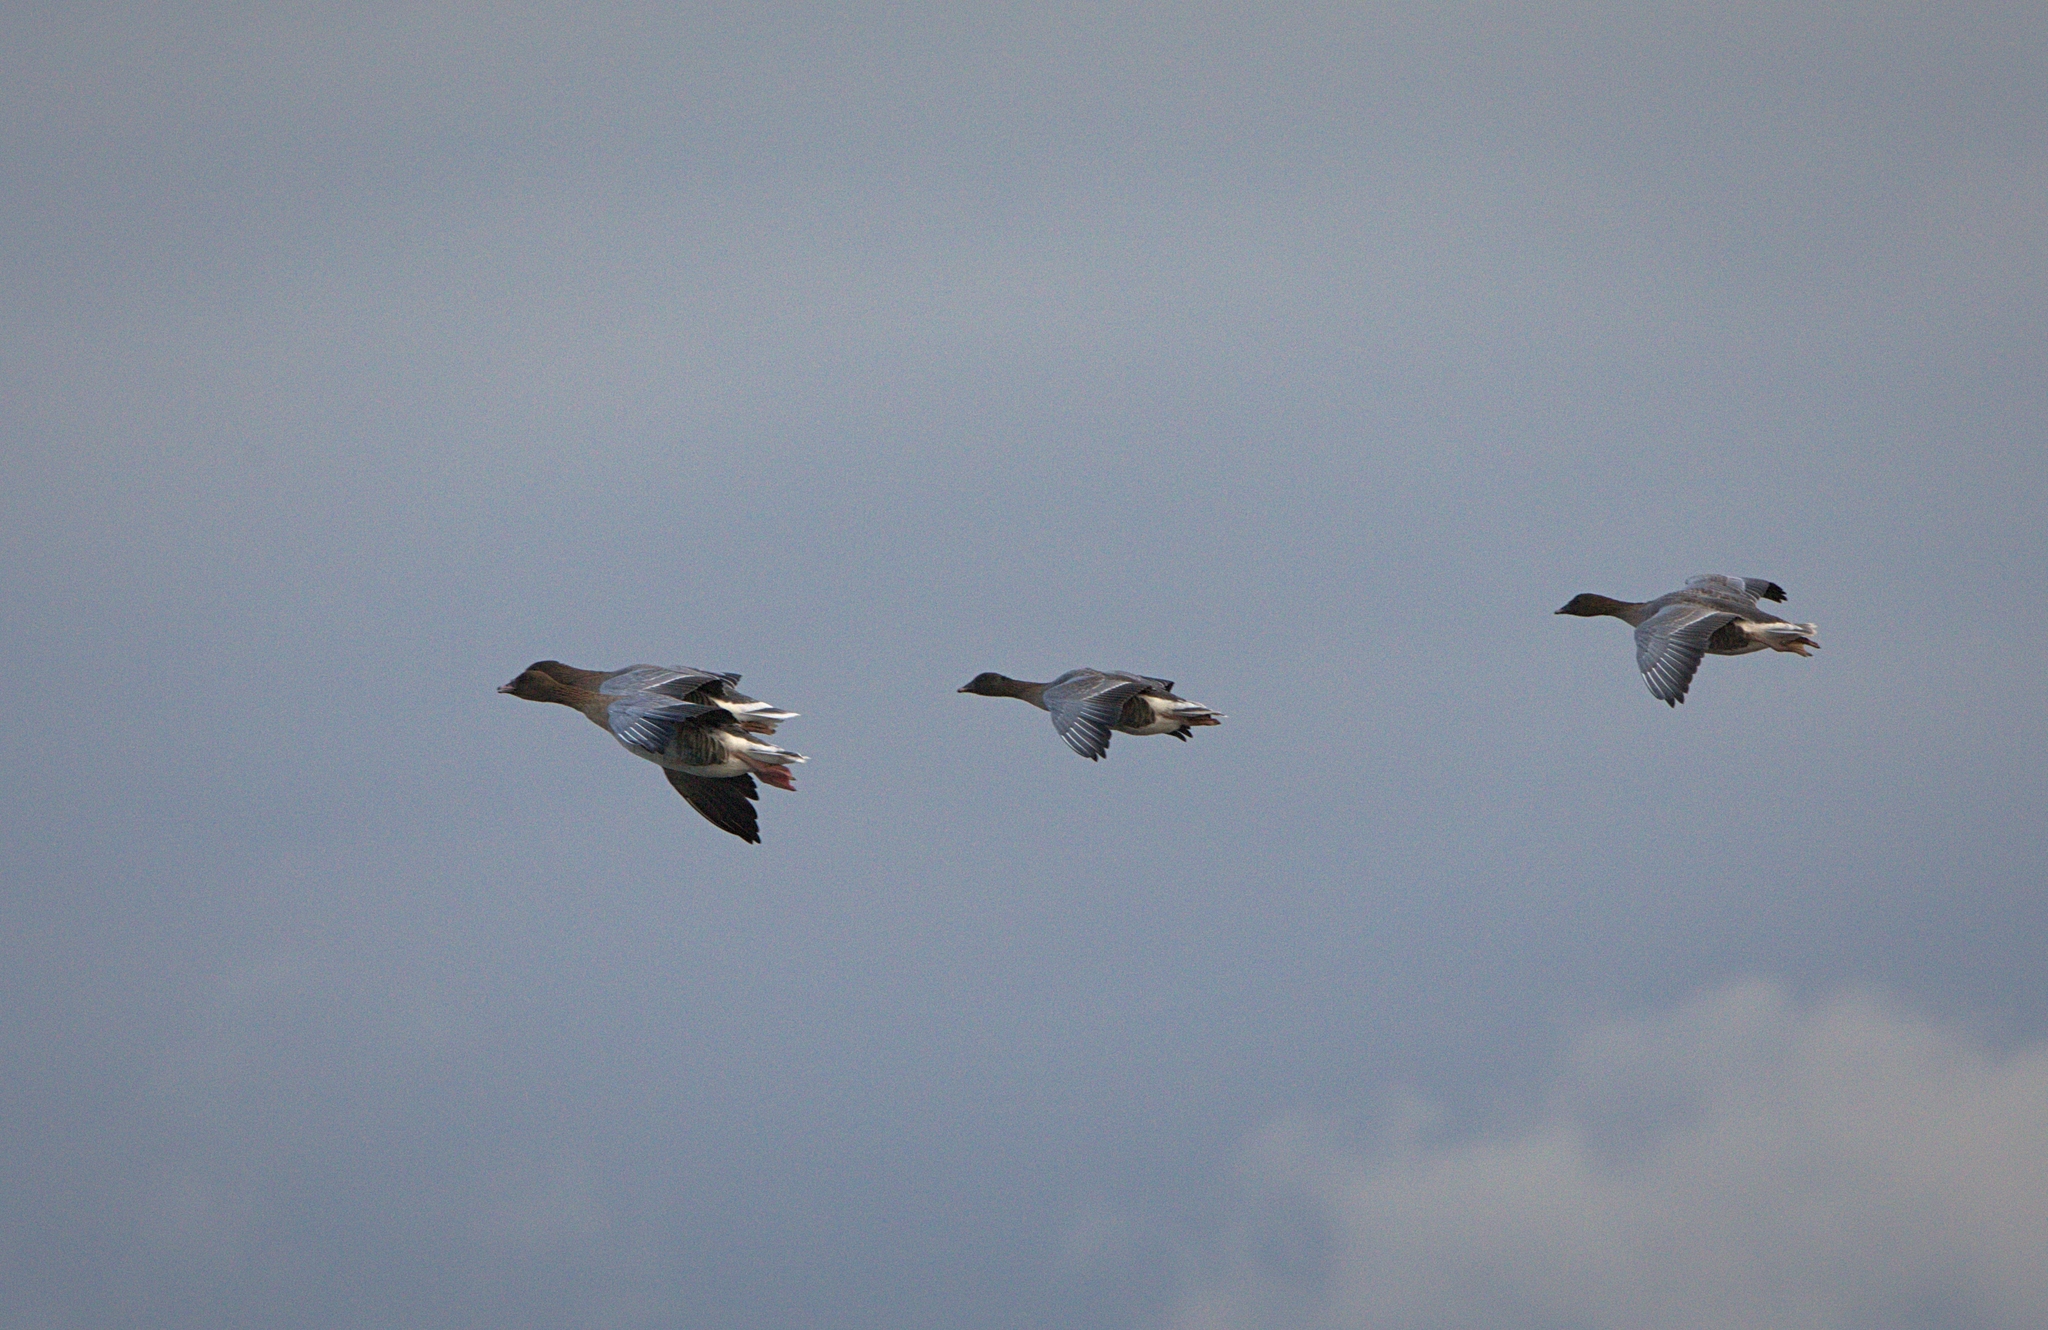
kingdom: Animalia
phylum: Chordata
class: Aves
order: Anseriformes
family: Anatidae
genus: Anser
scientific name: Anser brachyrhynchus
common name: Pink-footed goose
